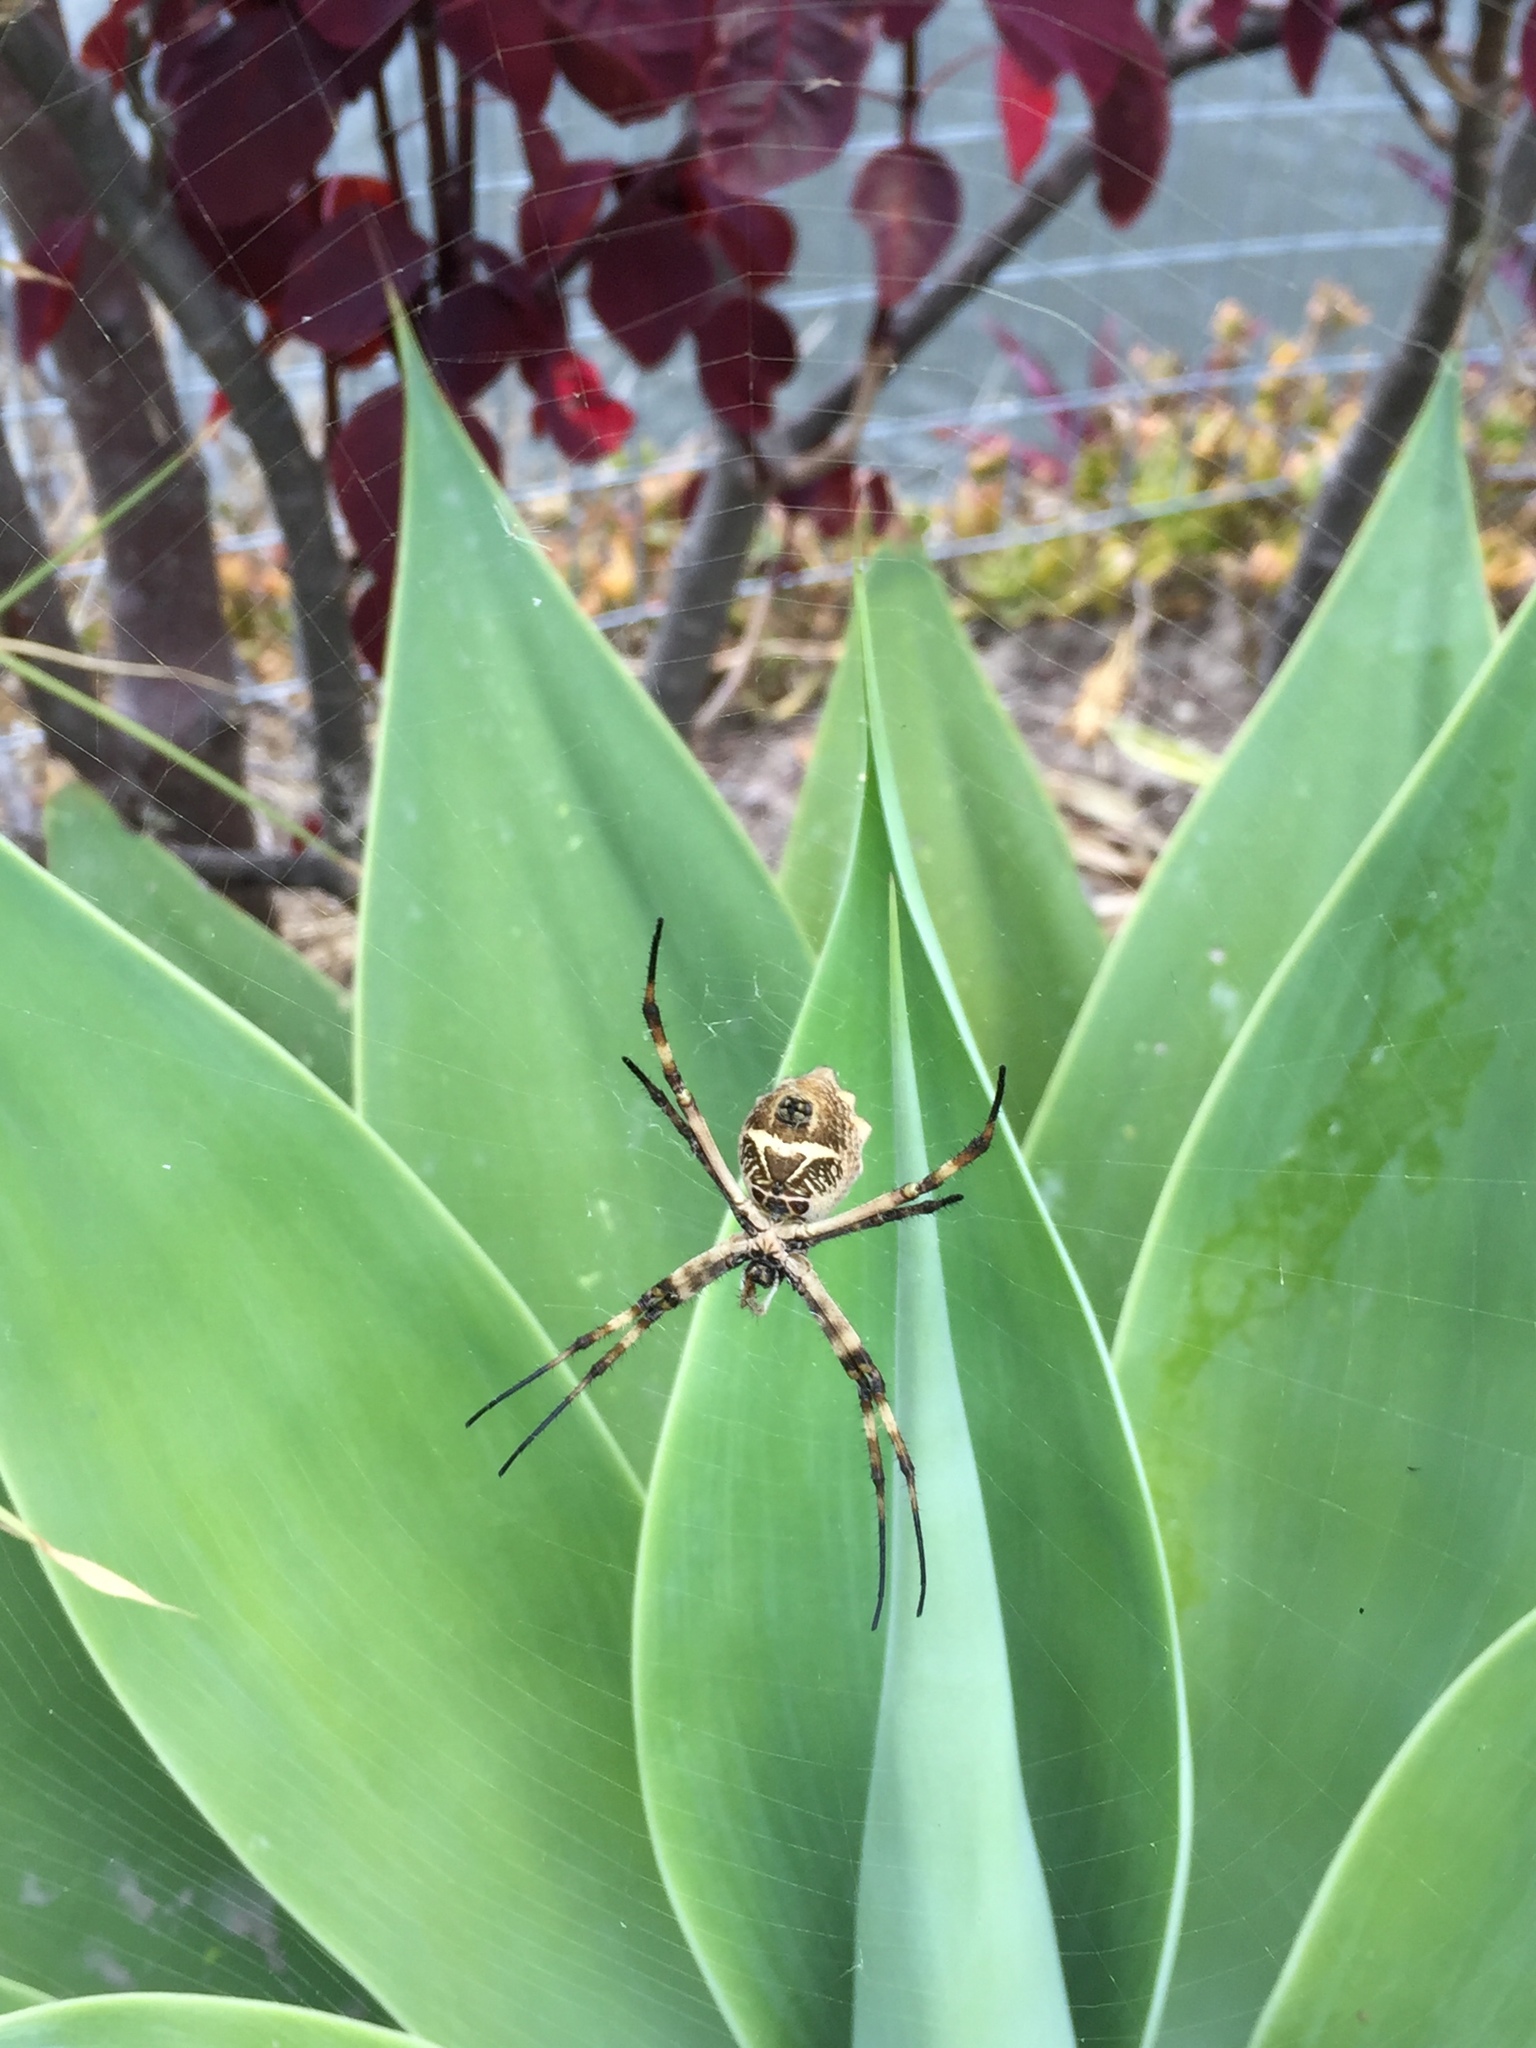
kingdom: Animalia
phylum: Arthropoda
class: Arachnida
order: Araneae
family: Araneidae
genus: Argiope
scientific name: Argiope argentata
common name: Orb weavers
